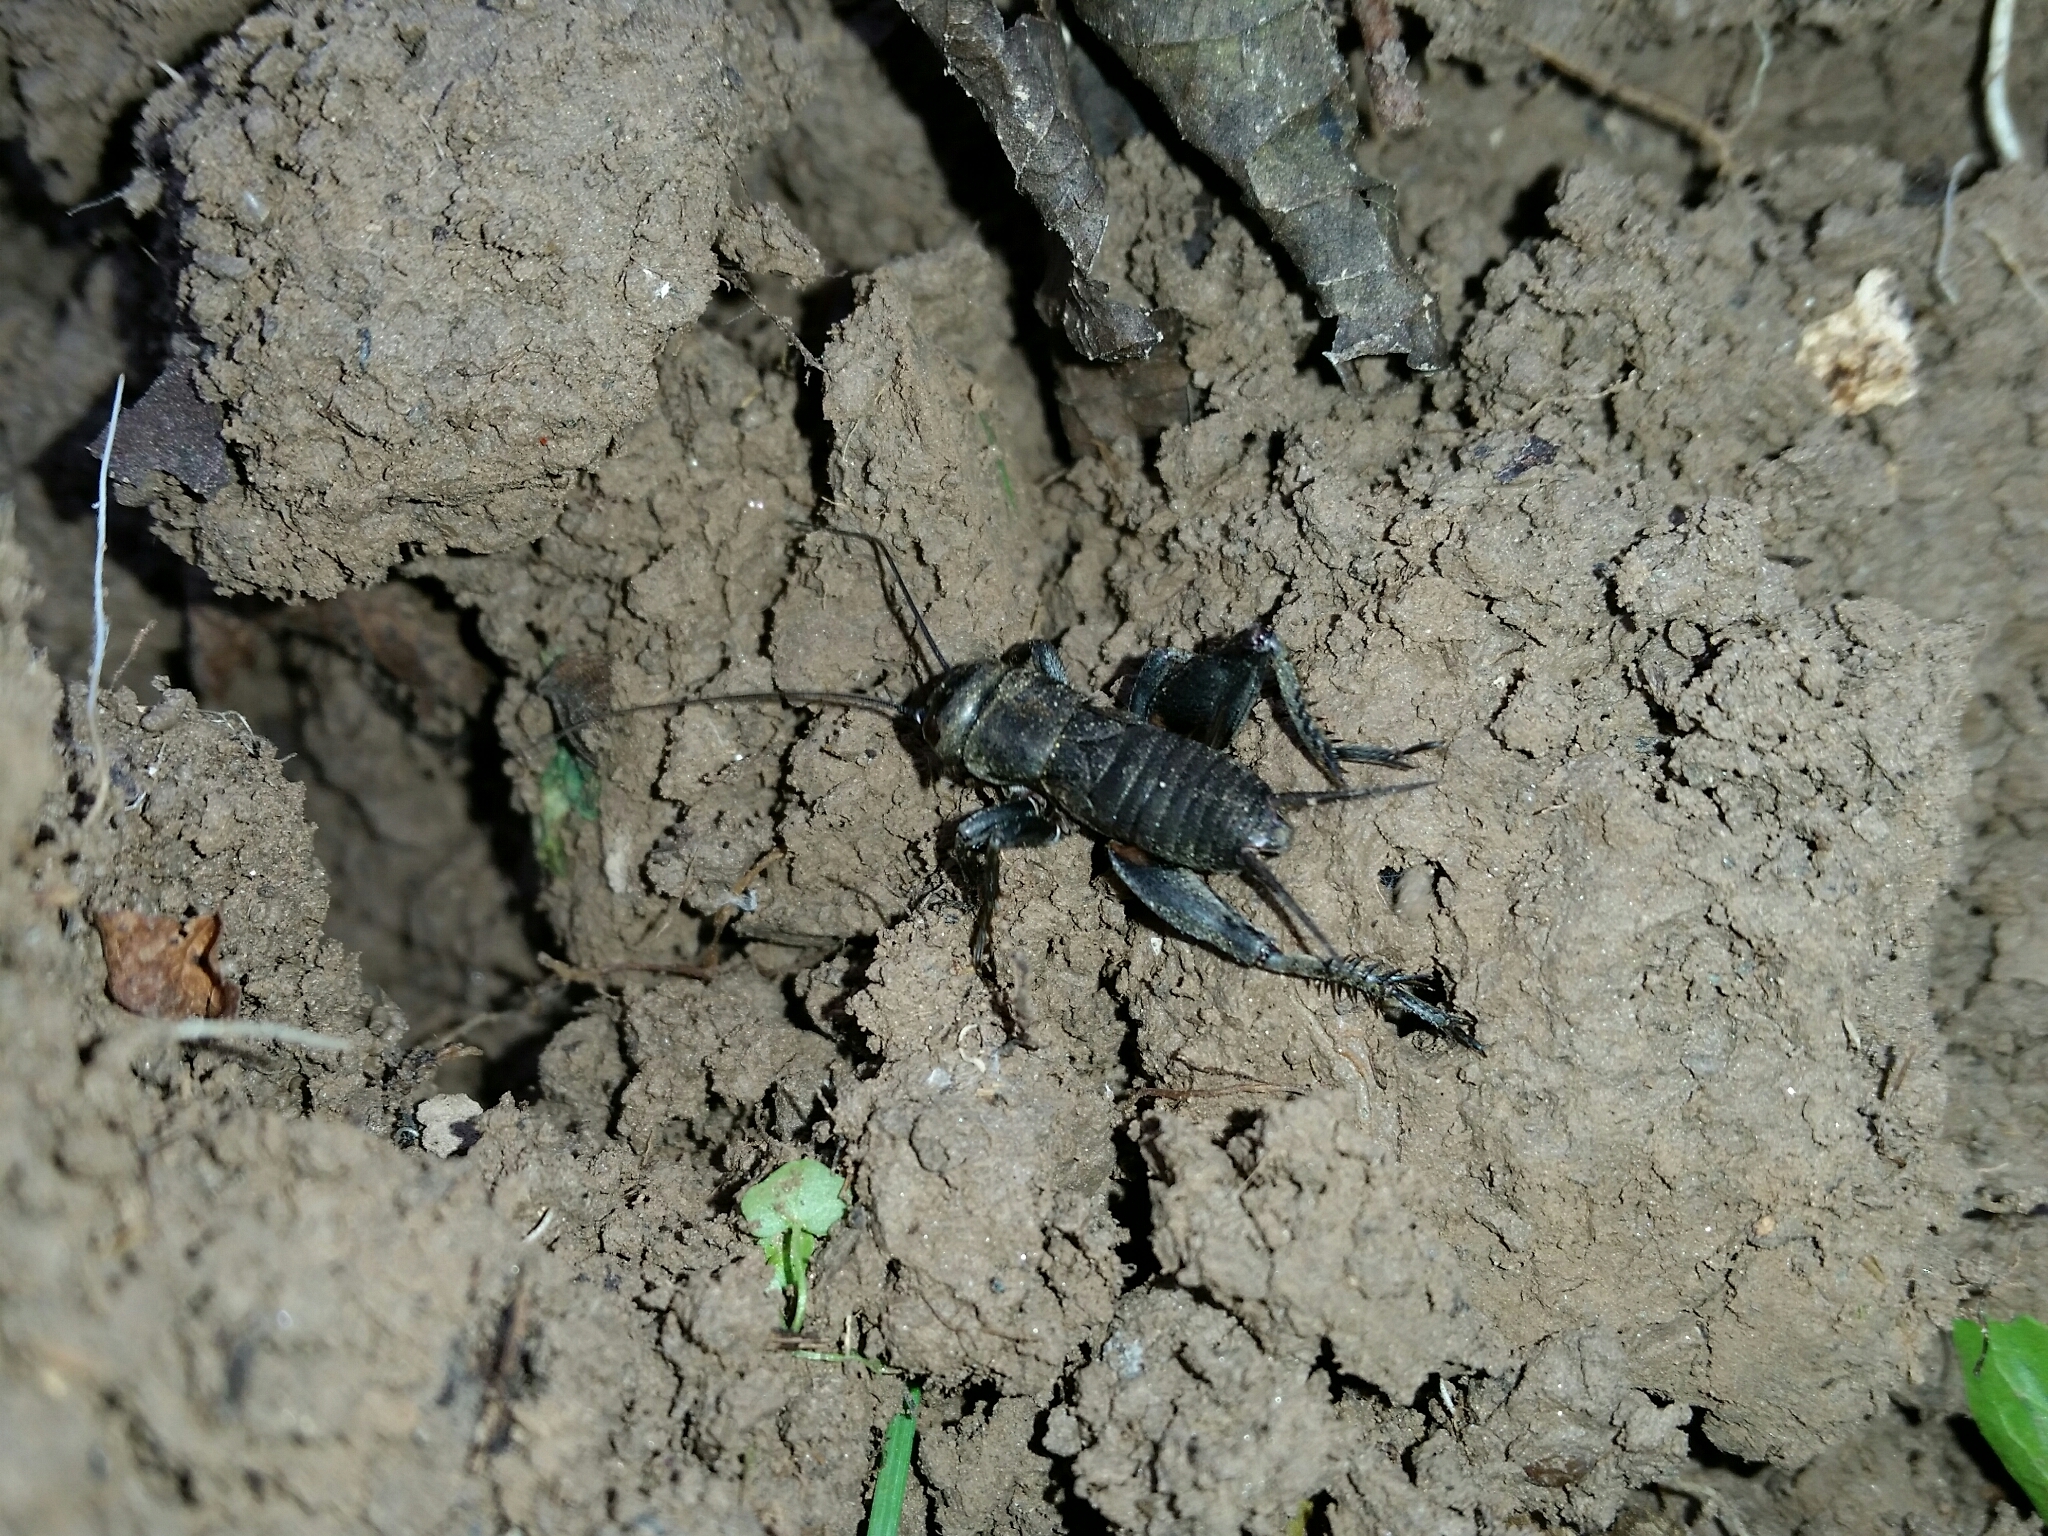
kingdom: Animalia
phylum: Arthropoda
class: Insecta
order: Orthoptera
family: Gryllidae
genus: Melanogryllus
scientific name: Melanogryllus desertus
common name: Desert cricket
